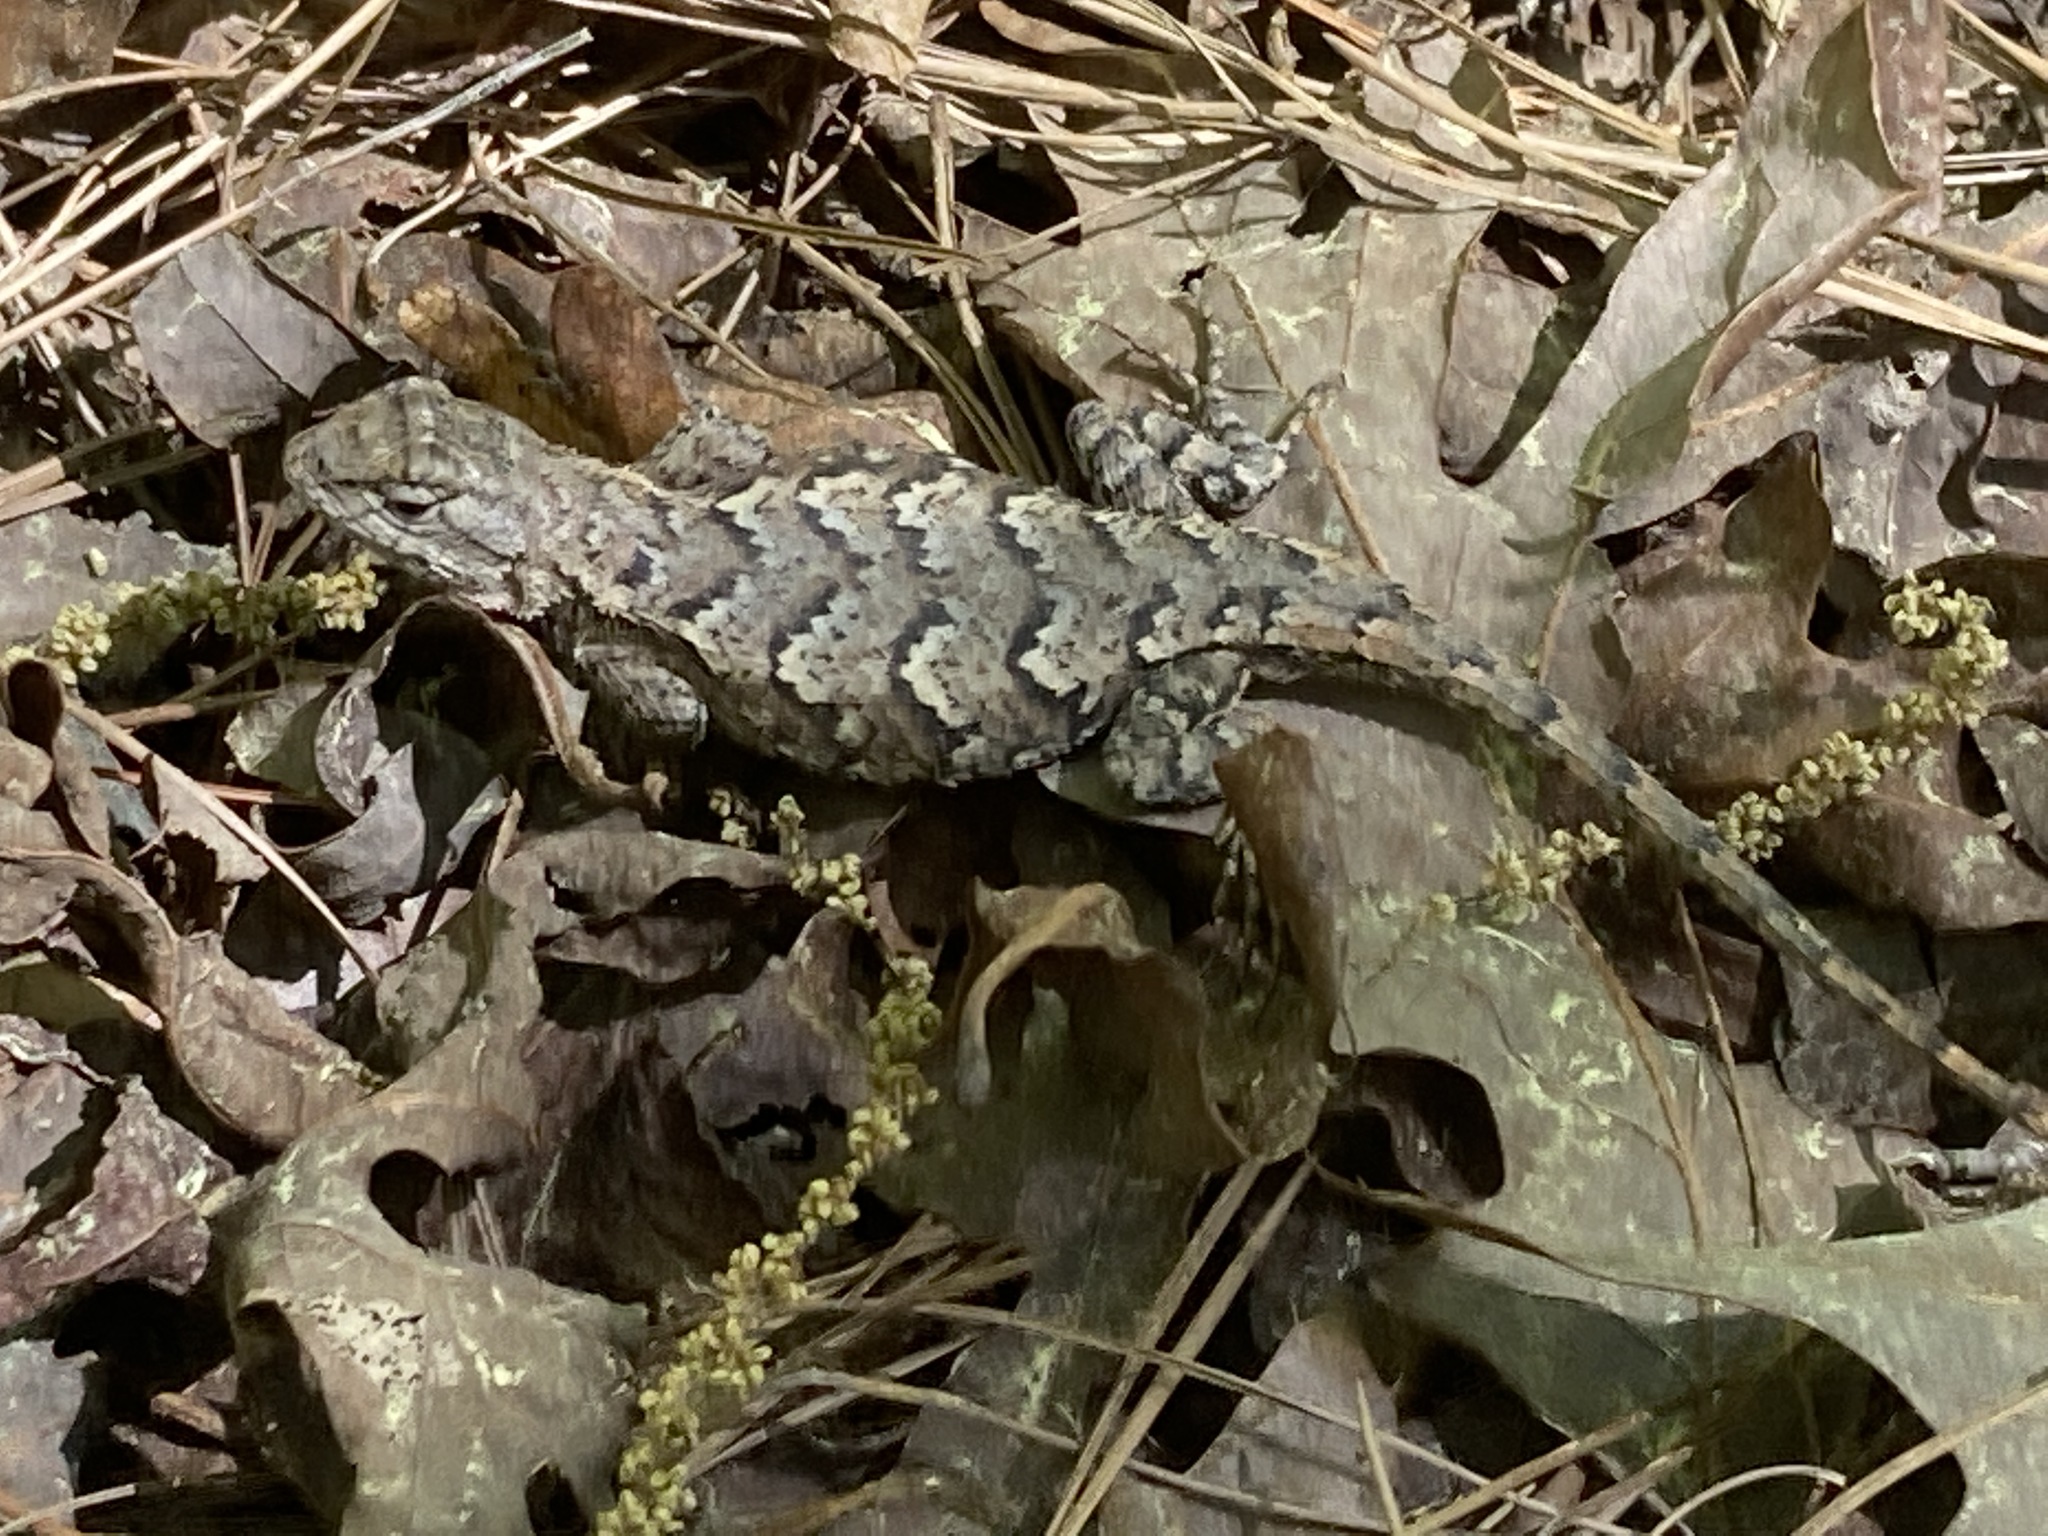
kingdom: Animalia
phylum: Chordata
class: Squamata
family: Phrynosomatidae
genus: Sceloporus
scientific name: Sceloporus consobrinus
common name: Southern prairie lizard
